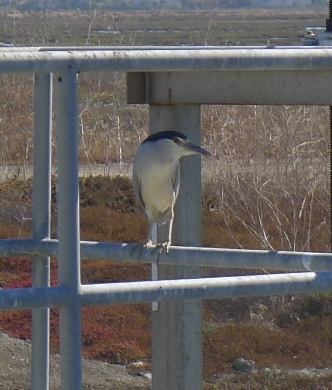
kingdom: Animalia
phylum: Chordata
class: Aves
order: Pelecaniformes
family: Ardeidae
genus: Nycticorax
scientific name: Nycticorax nycticorax
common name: Black-crowned night heron
